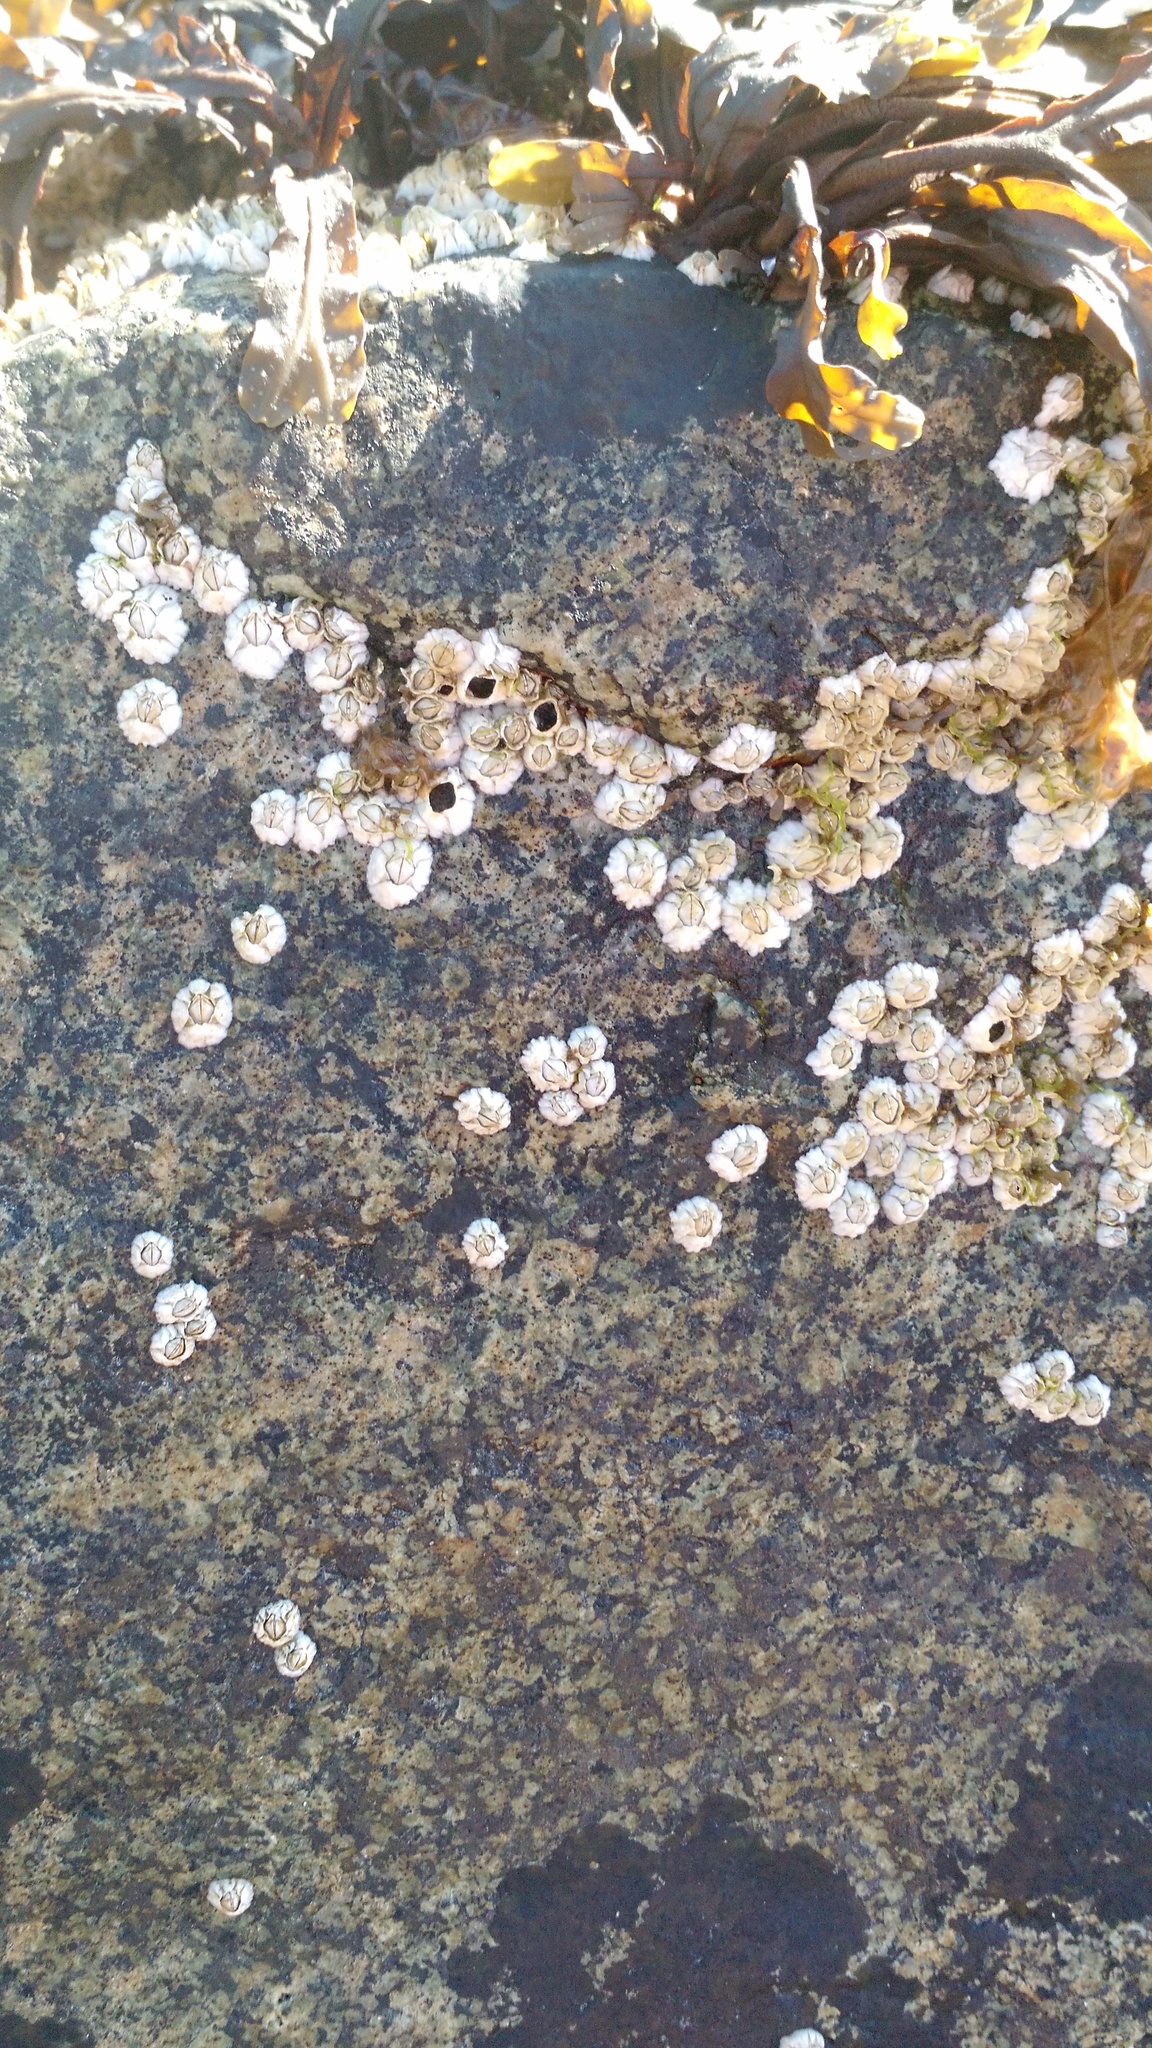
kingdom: Animalia
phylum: Arthropoda
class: Maxillopoda
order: Sessilia
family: Archaeobalanidae
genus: Semibalanus
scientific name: Semibalanus balanoides
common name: Acorn barnacle
